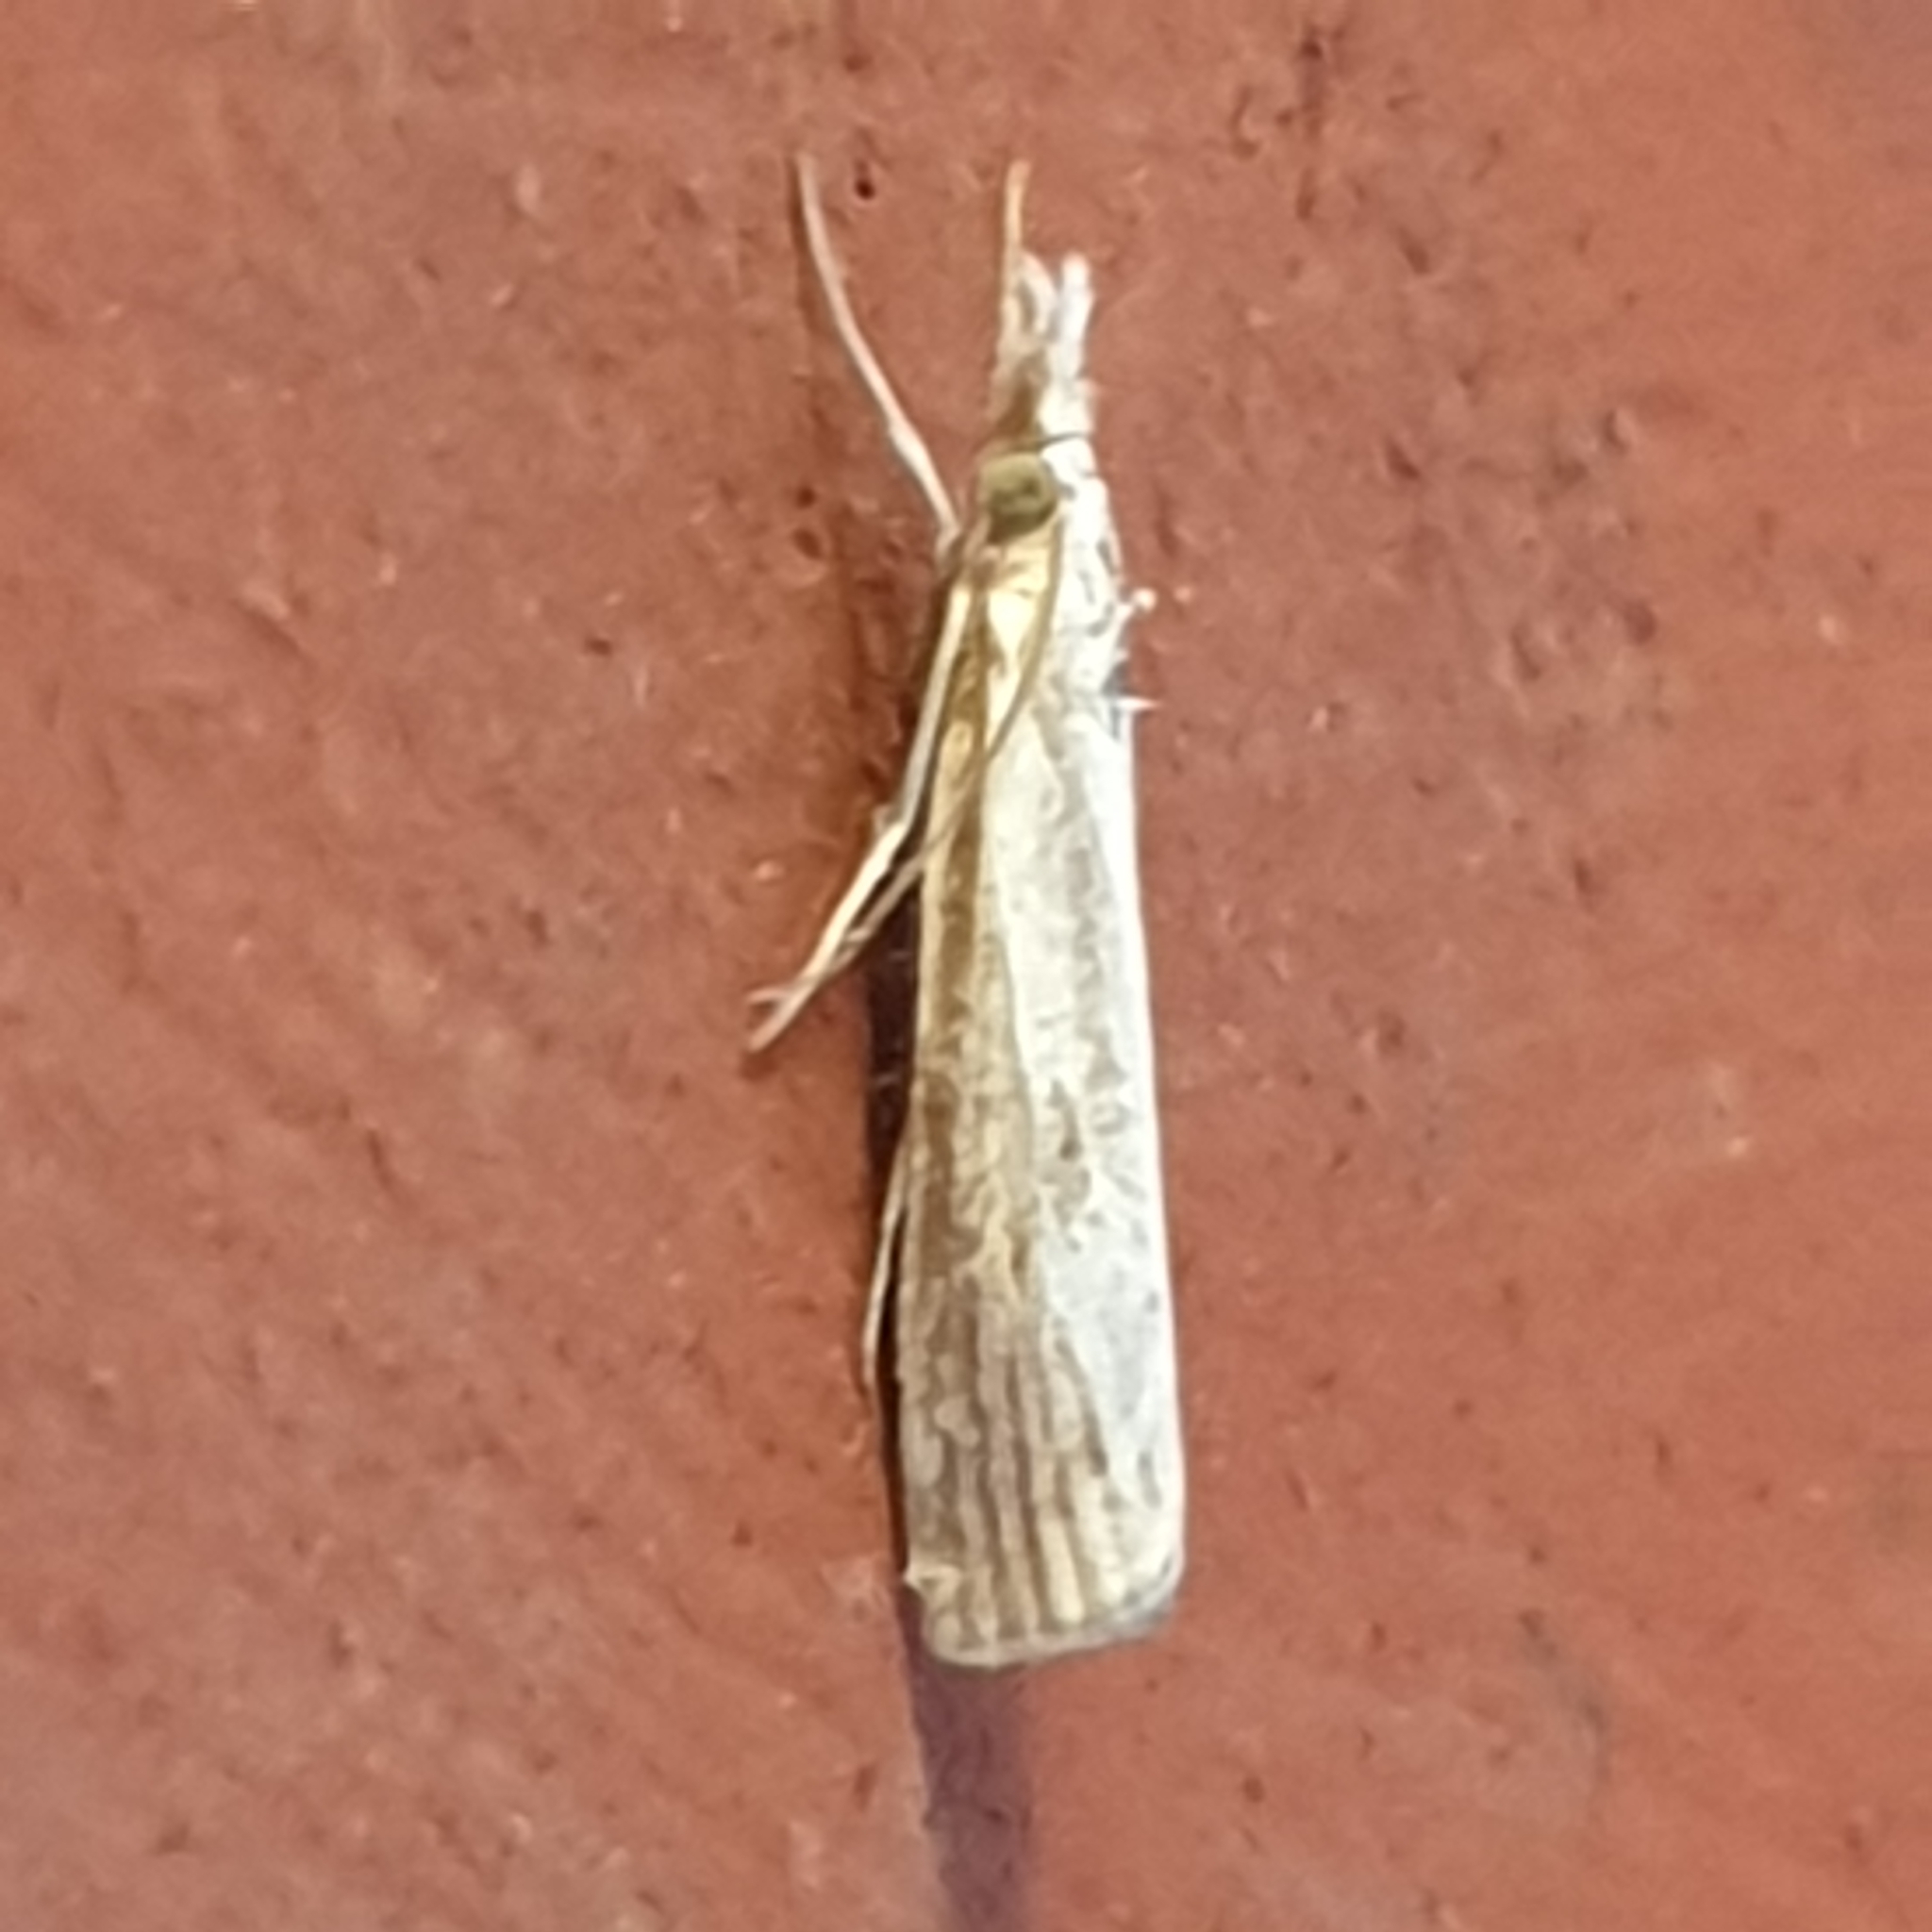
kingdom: Animalia
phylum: Arthropoda
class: Insecta
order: Lepidoptera
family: Crambidae
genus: Agriphila
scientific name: Agriphila inquinatella
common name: Barred grass-veneer
